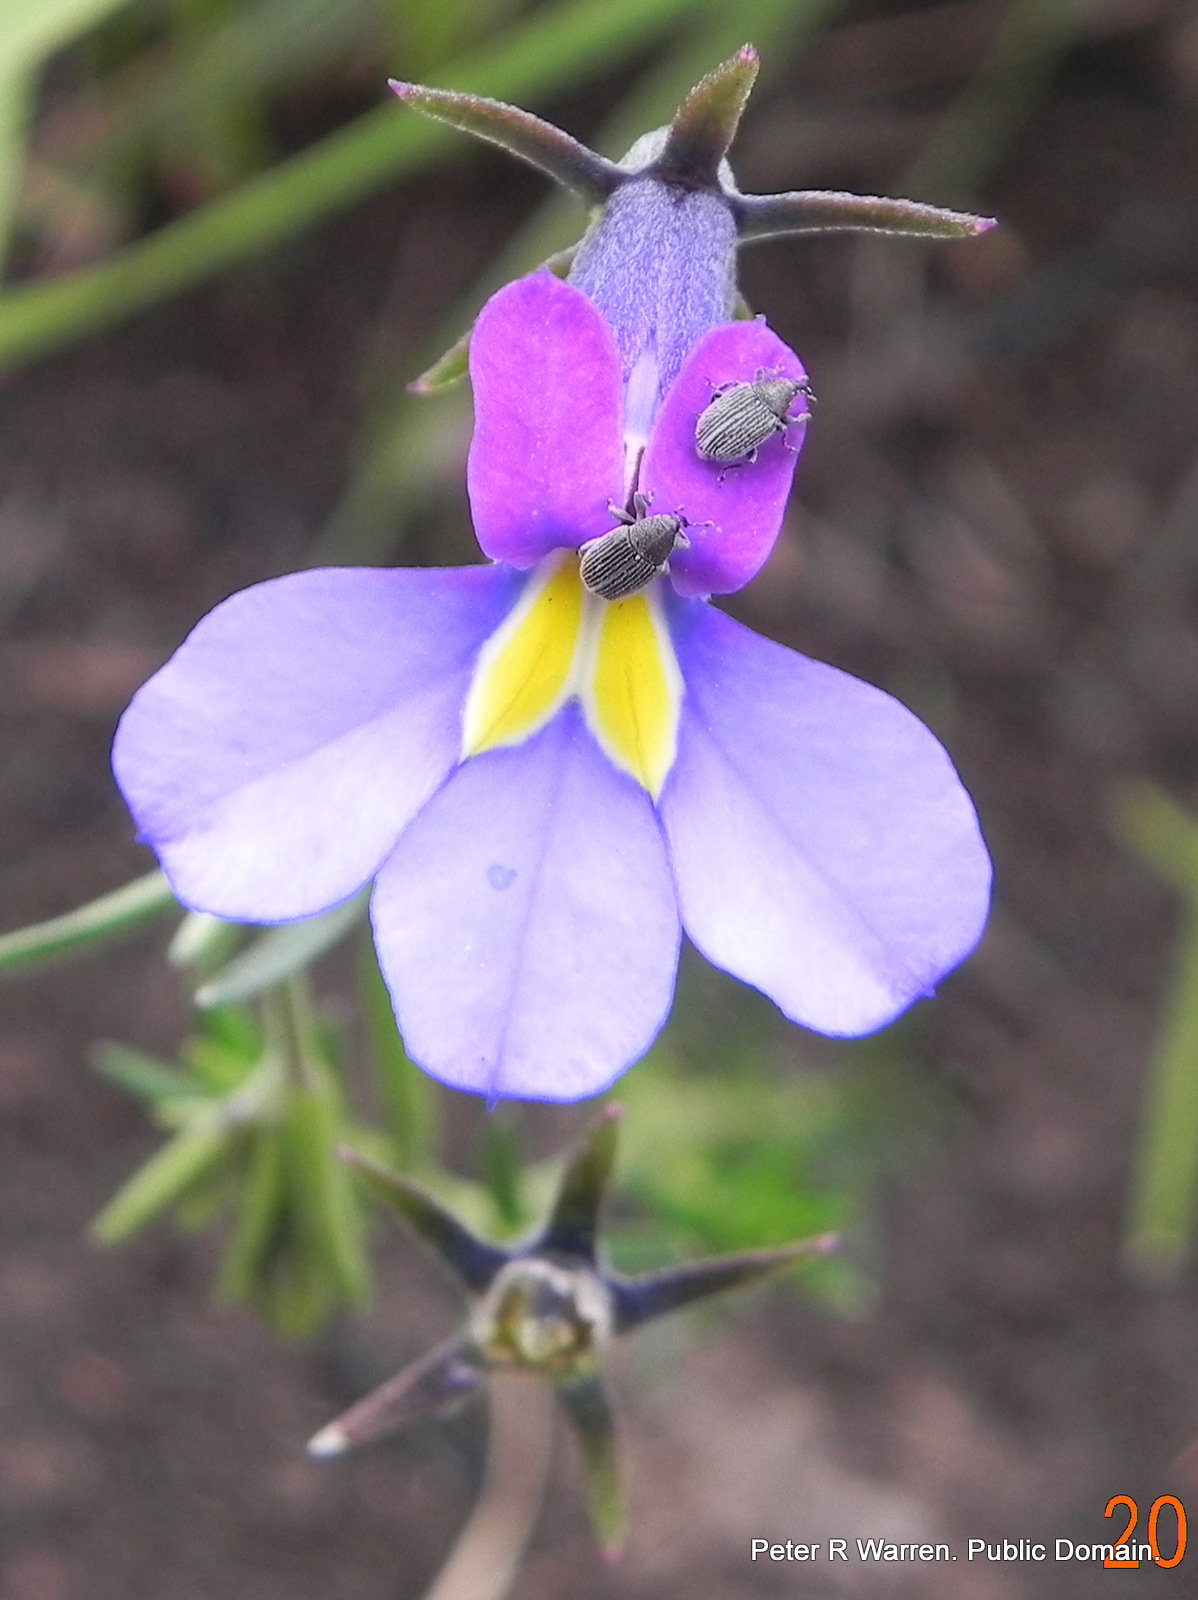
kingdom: Plantae
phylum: Tracheophyta
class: Magnoliopsida
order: Asterales
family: Campanulaceae
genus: Monopsis
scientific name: Monopsis decipiens
